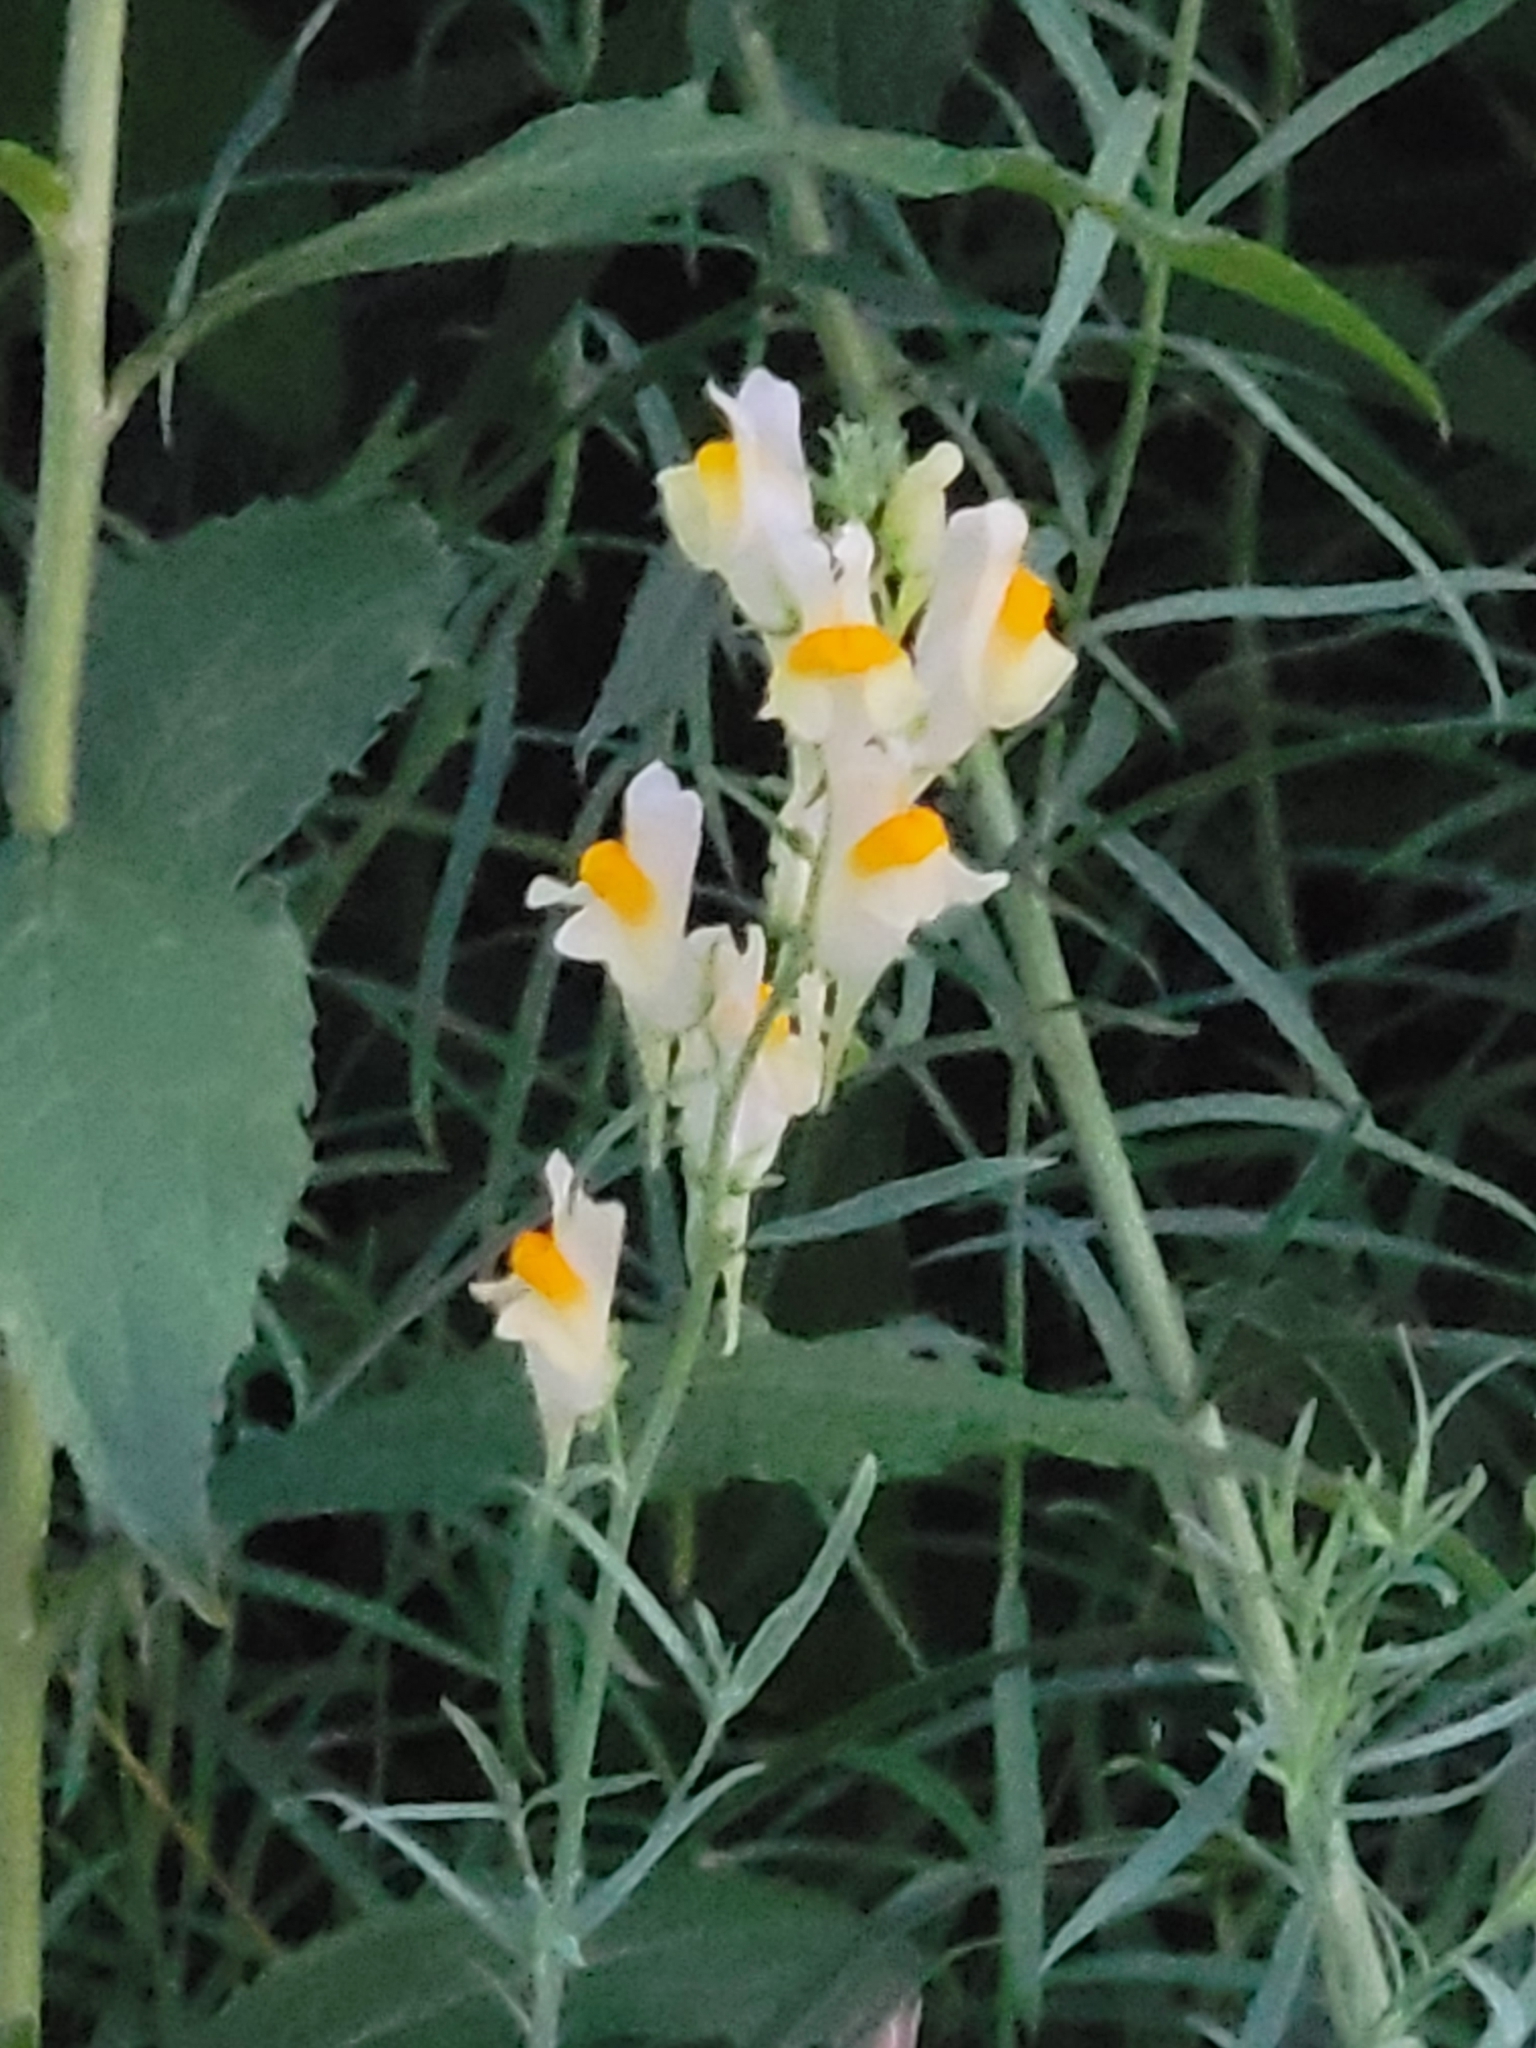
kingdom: Plantae
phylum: Tracheophyta
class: Magnoliopsida
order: Lamiales
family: Plantaginaceae
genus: Linaria
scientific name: Linaria vulgaris
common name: Butter and eggs
